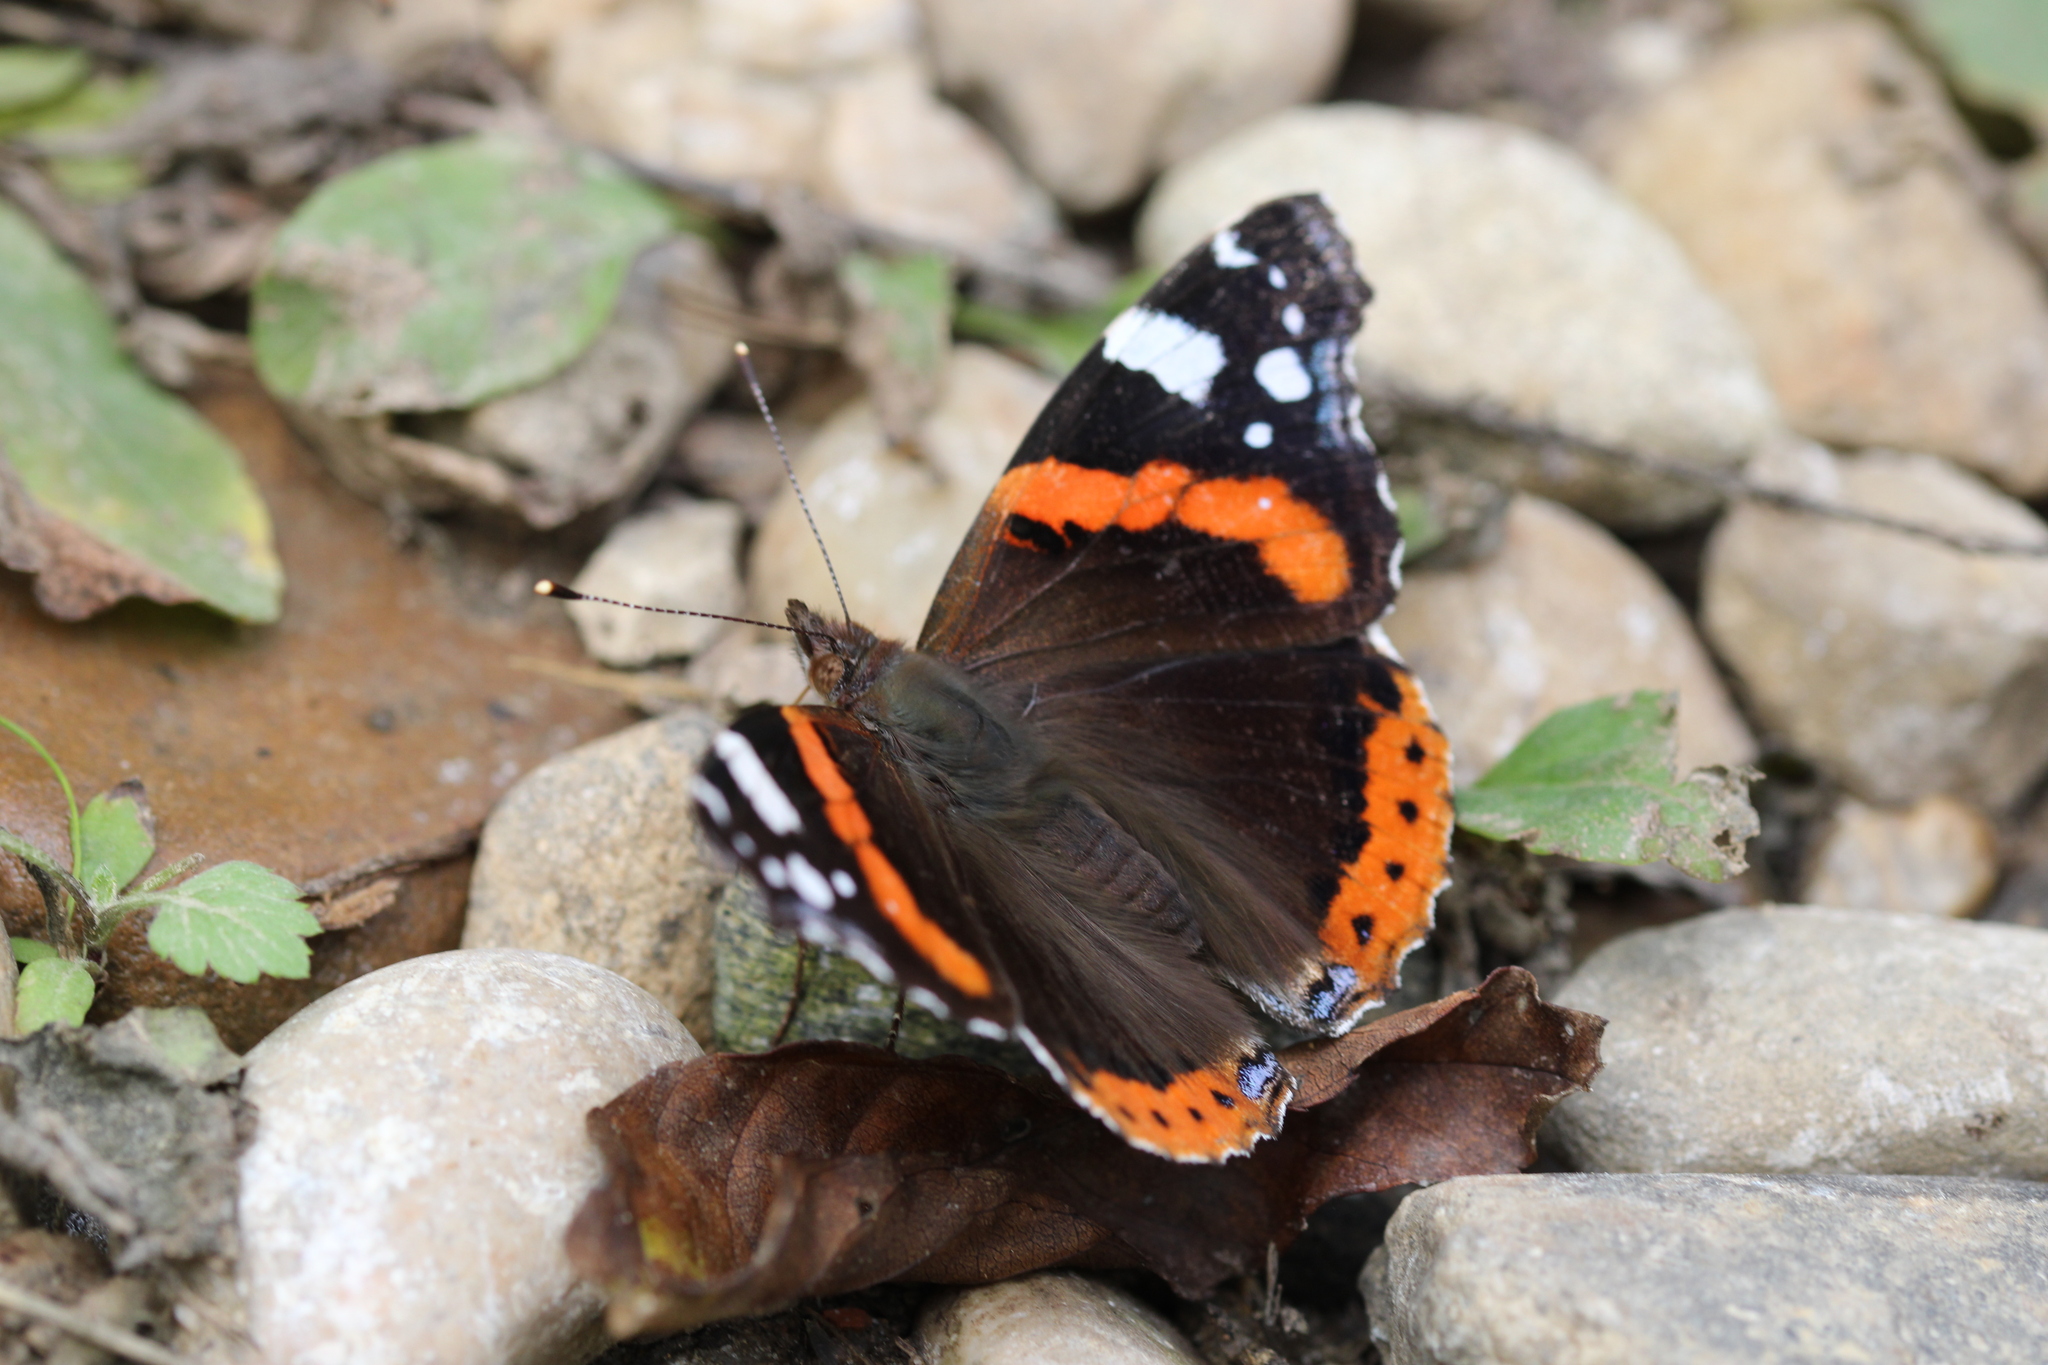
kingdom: Animalia
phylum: Arthropoda
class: Insecta
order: Lepidoptera
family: Nymphalidae
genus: Vanessa
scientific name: Vanessa atalanta
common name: Red admiral
